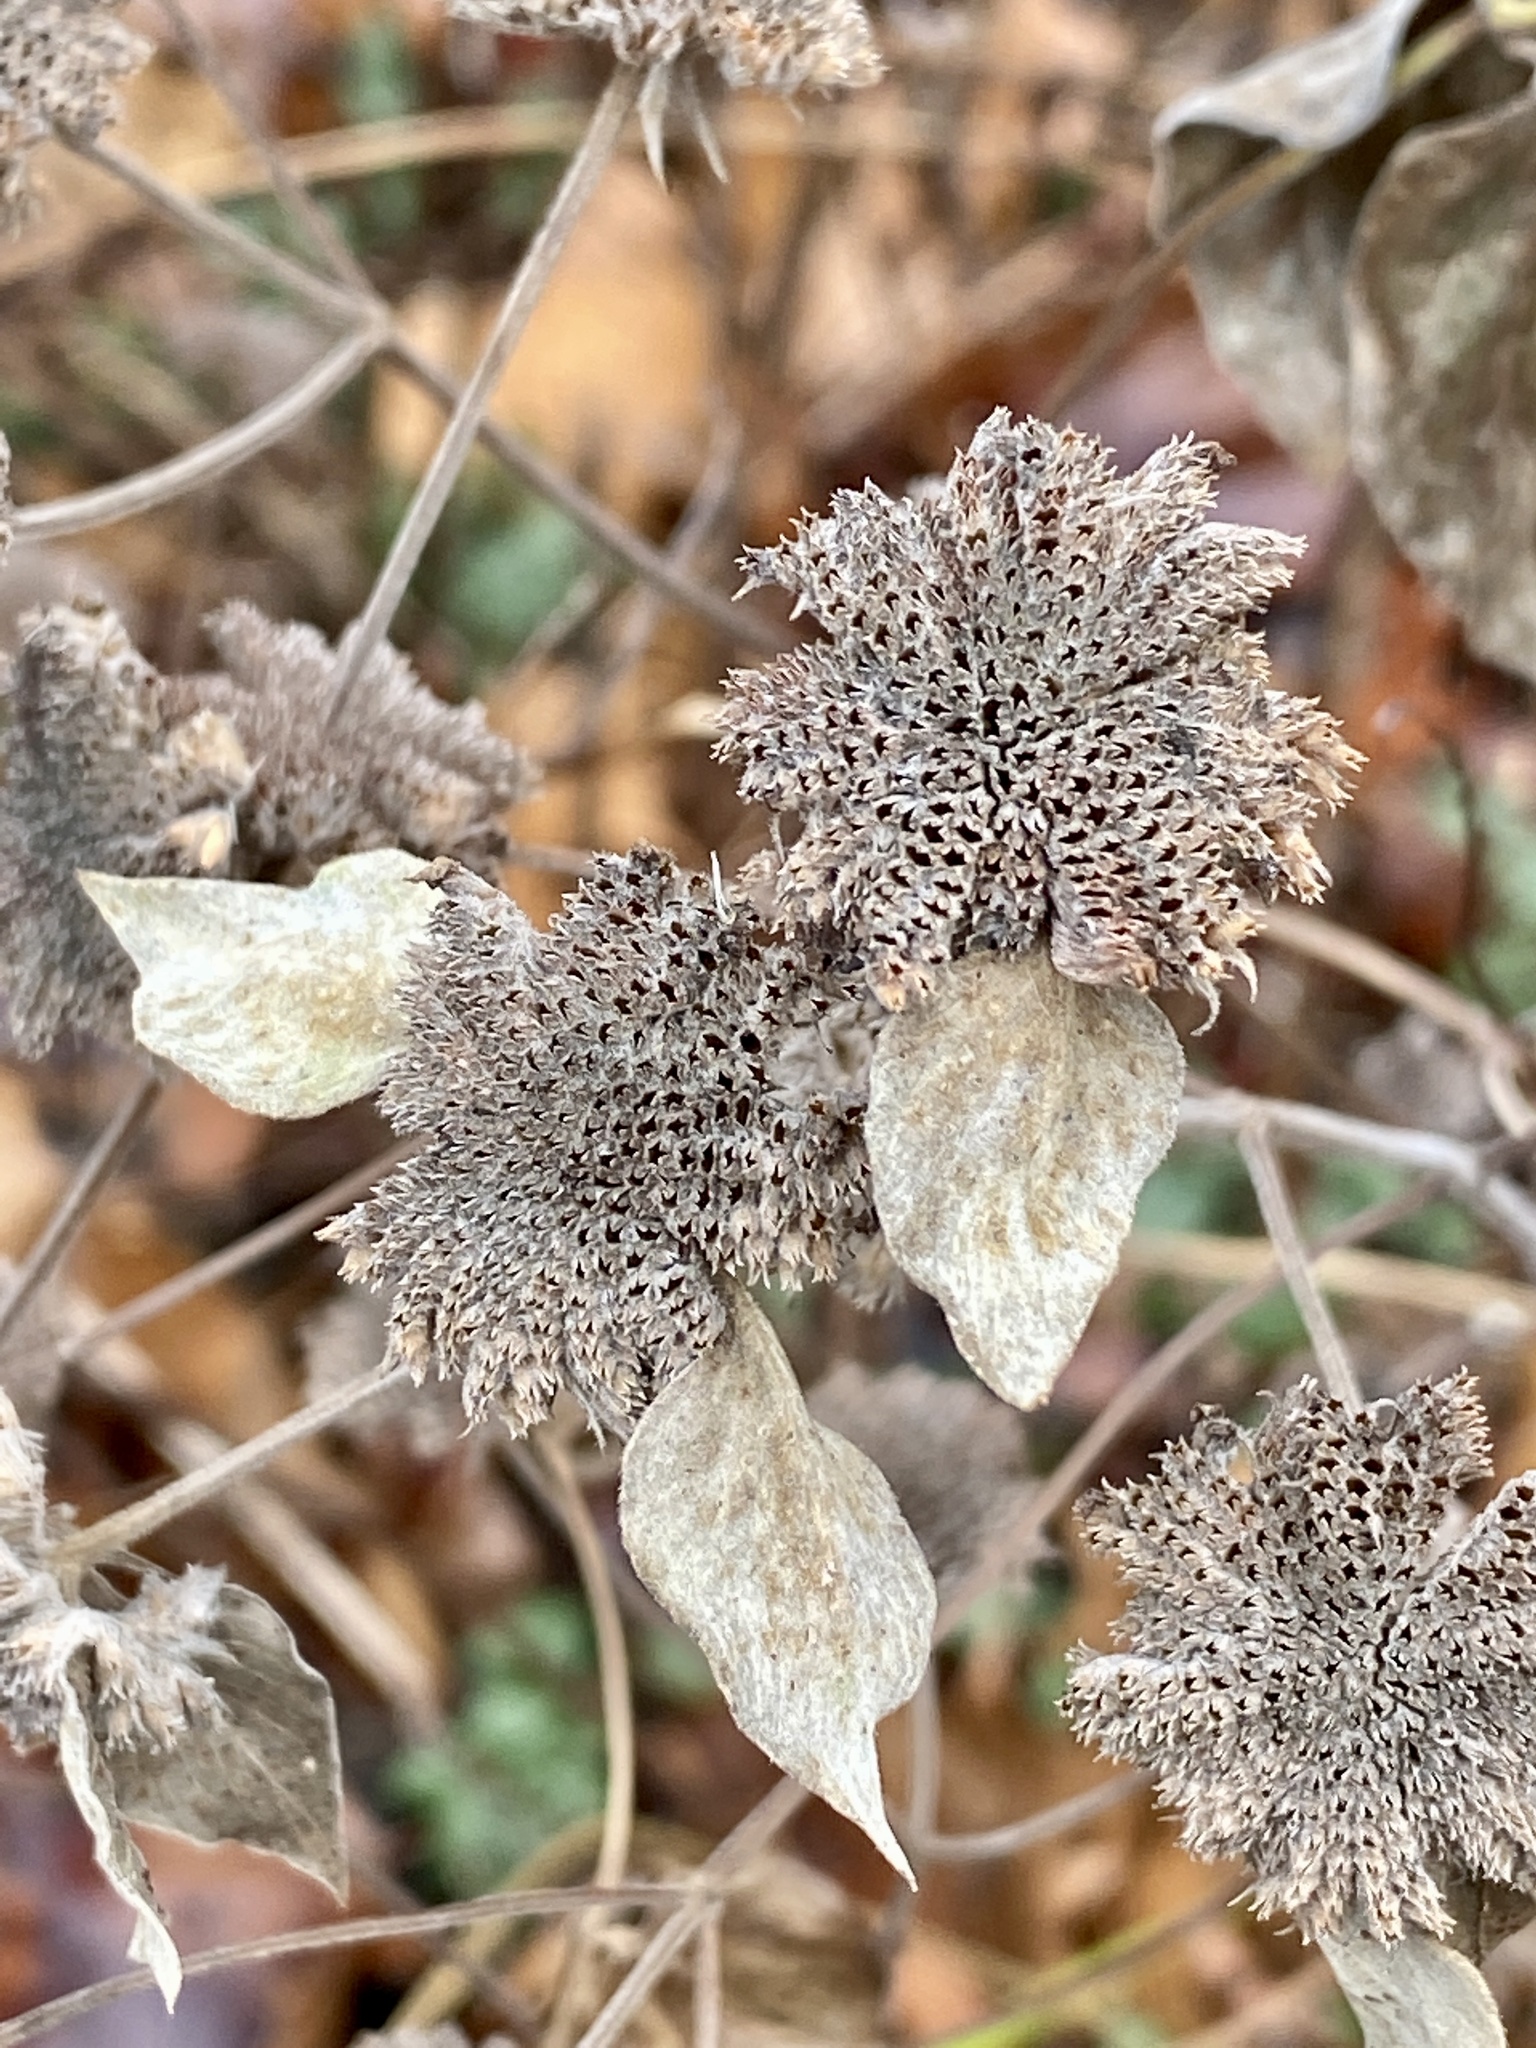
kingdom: Plantae
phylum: Tracheophyta
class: Magnoliopsida
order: Lamiales
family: Lamiaceae
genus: Pycnanthemum
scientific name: Pycnanthemum muticum
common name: Blunt mountain-mint
